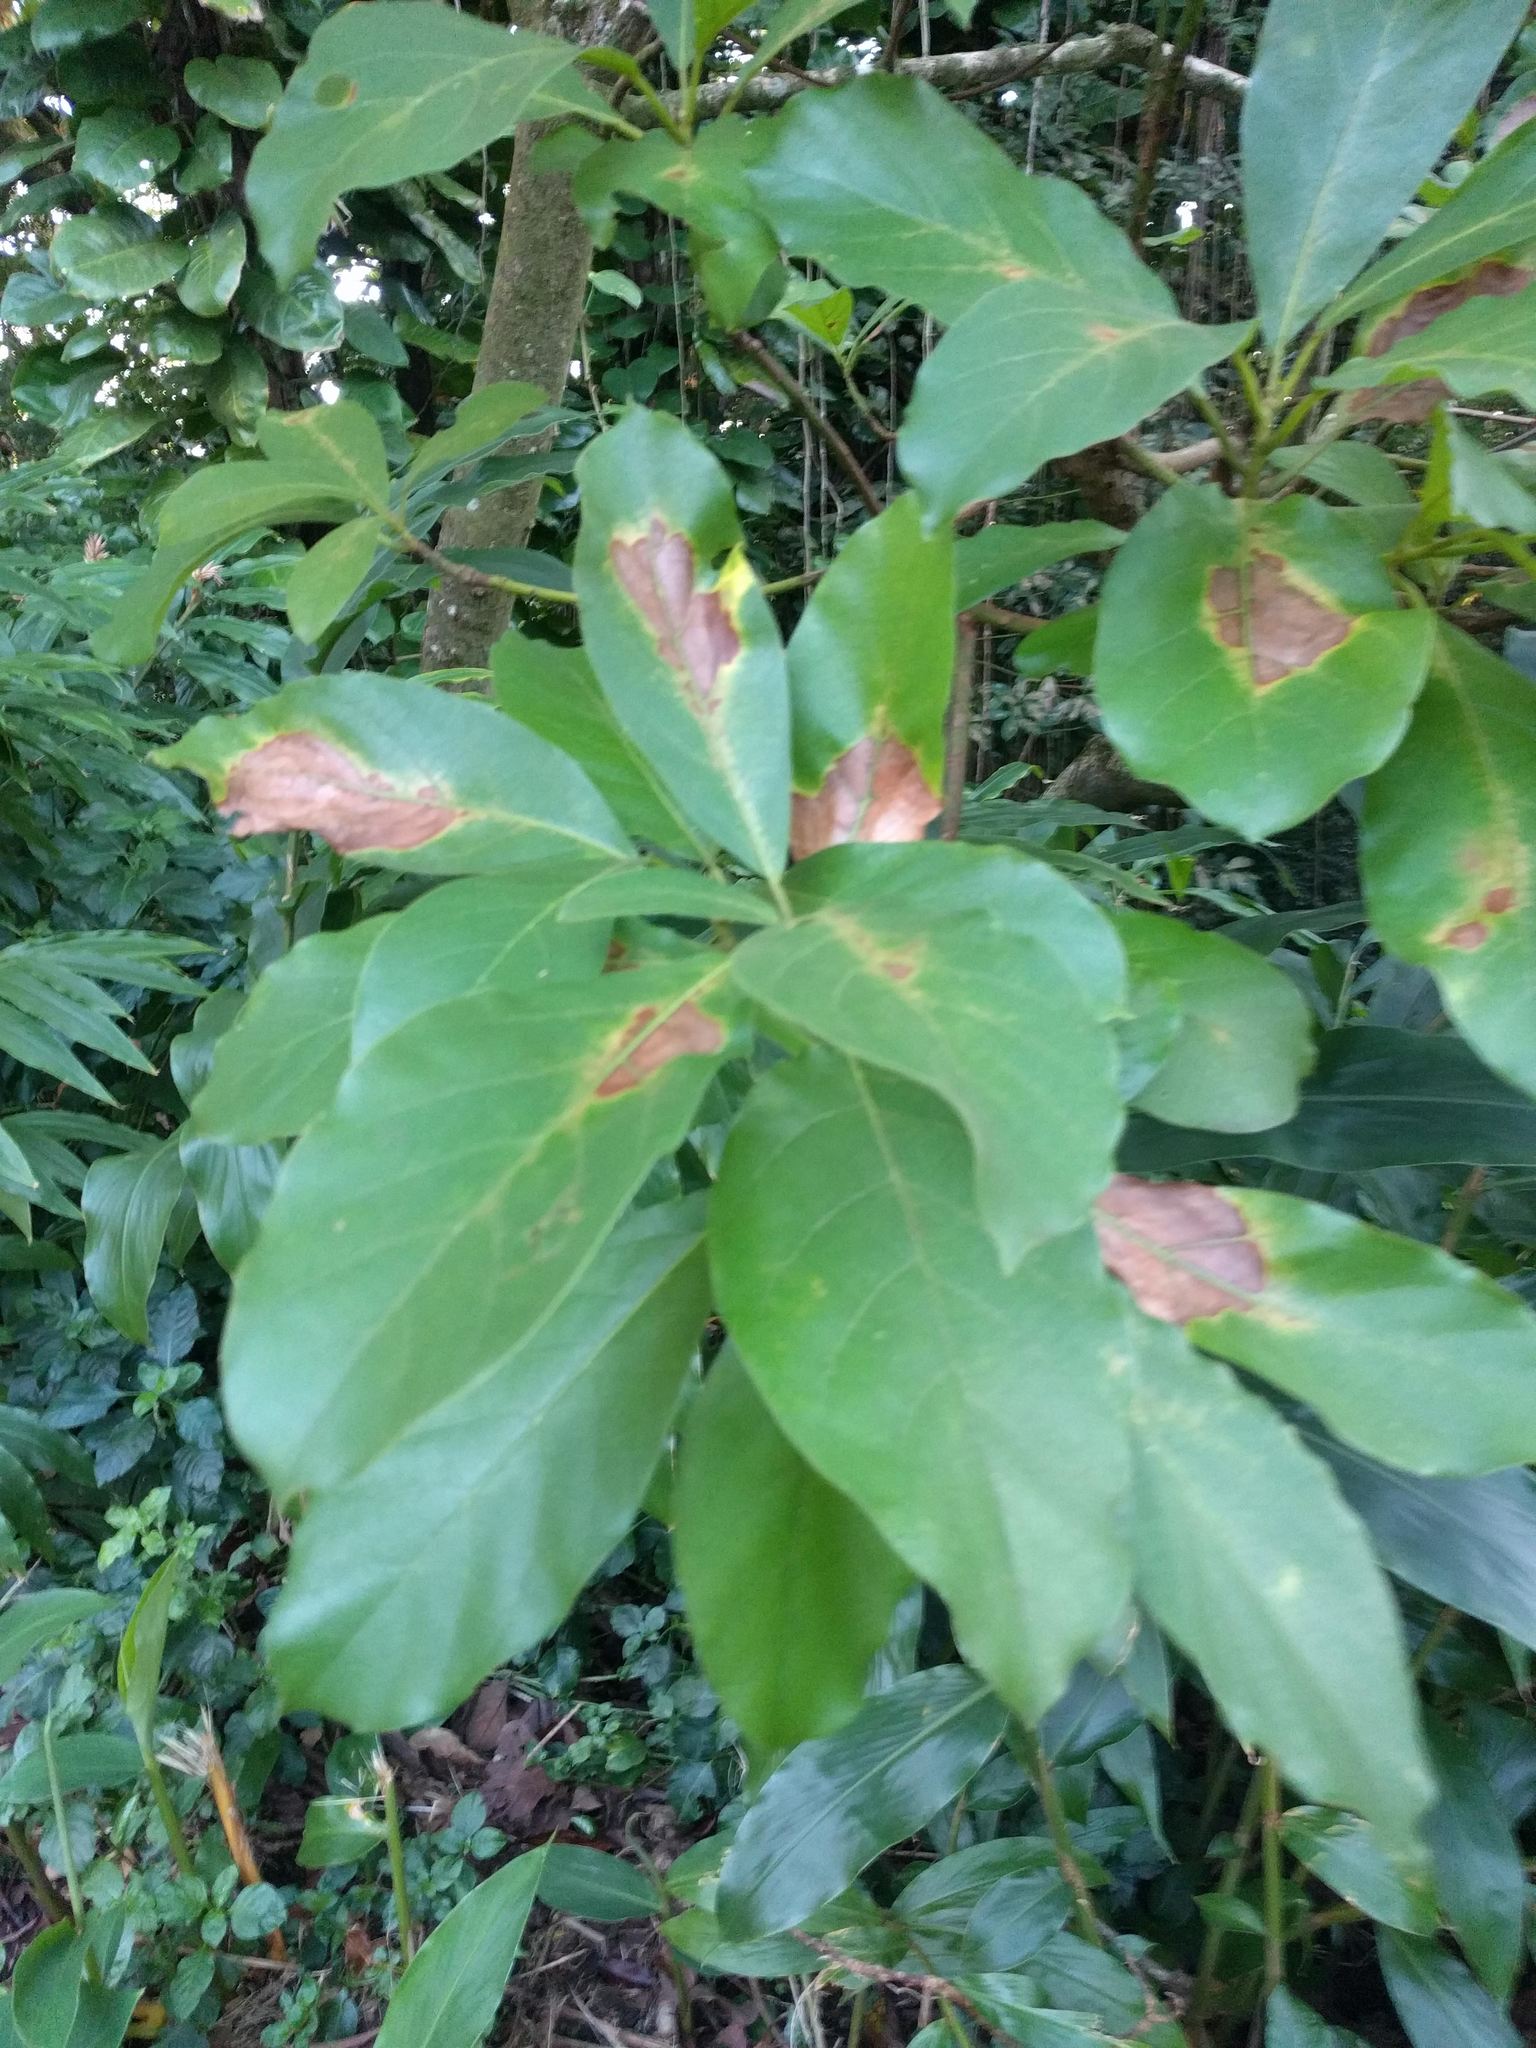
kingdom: Plantae
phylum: Tracheophyta
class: Magnoliopsida
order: Laurales
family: Lauraceae
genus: Persea
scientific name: Persea americana
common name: Avocado
